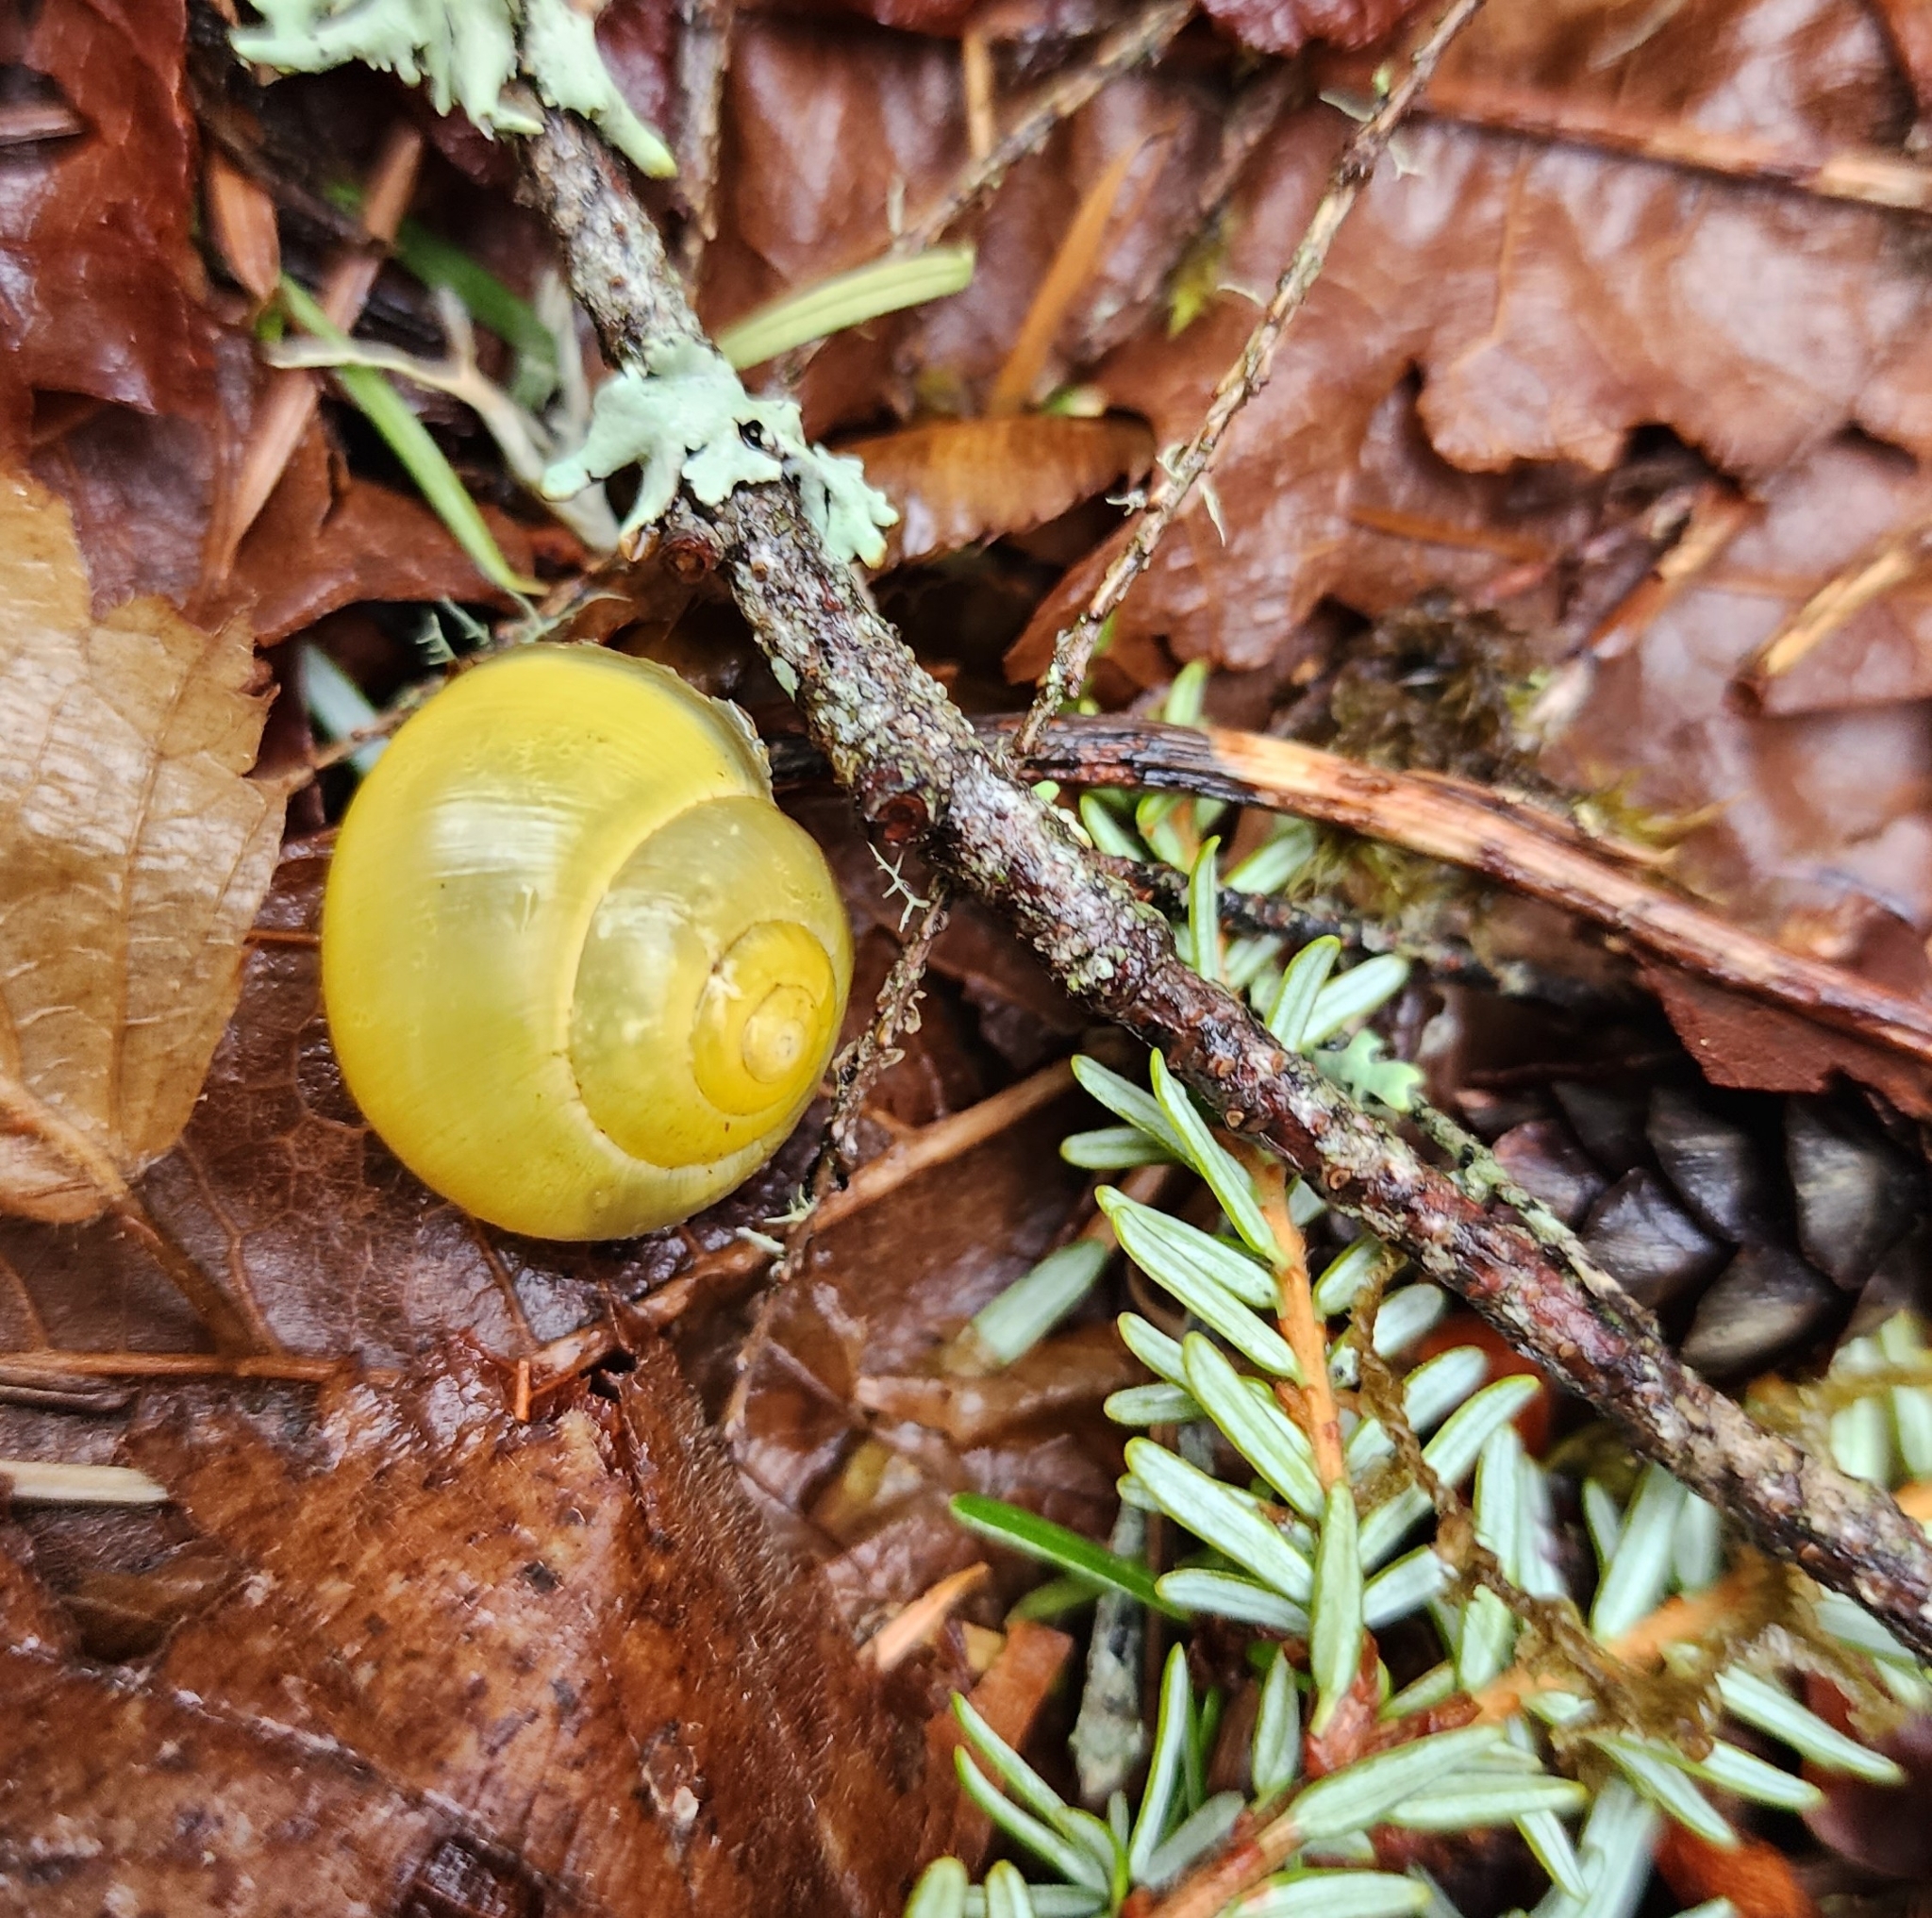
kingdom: Animalia
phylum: Mollusca
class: Gastropoda
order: Stylommatophora
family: Helicidae
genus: Cepaea
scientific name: Cepaea nemoralis
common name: Grovesnail
